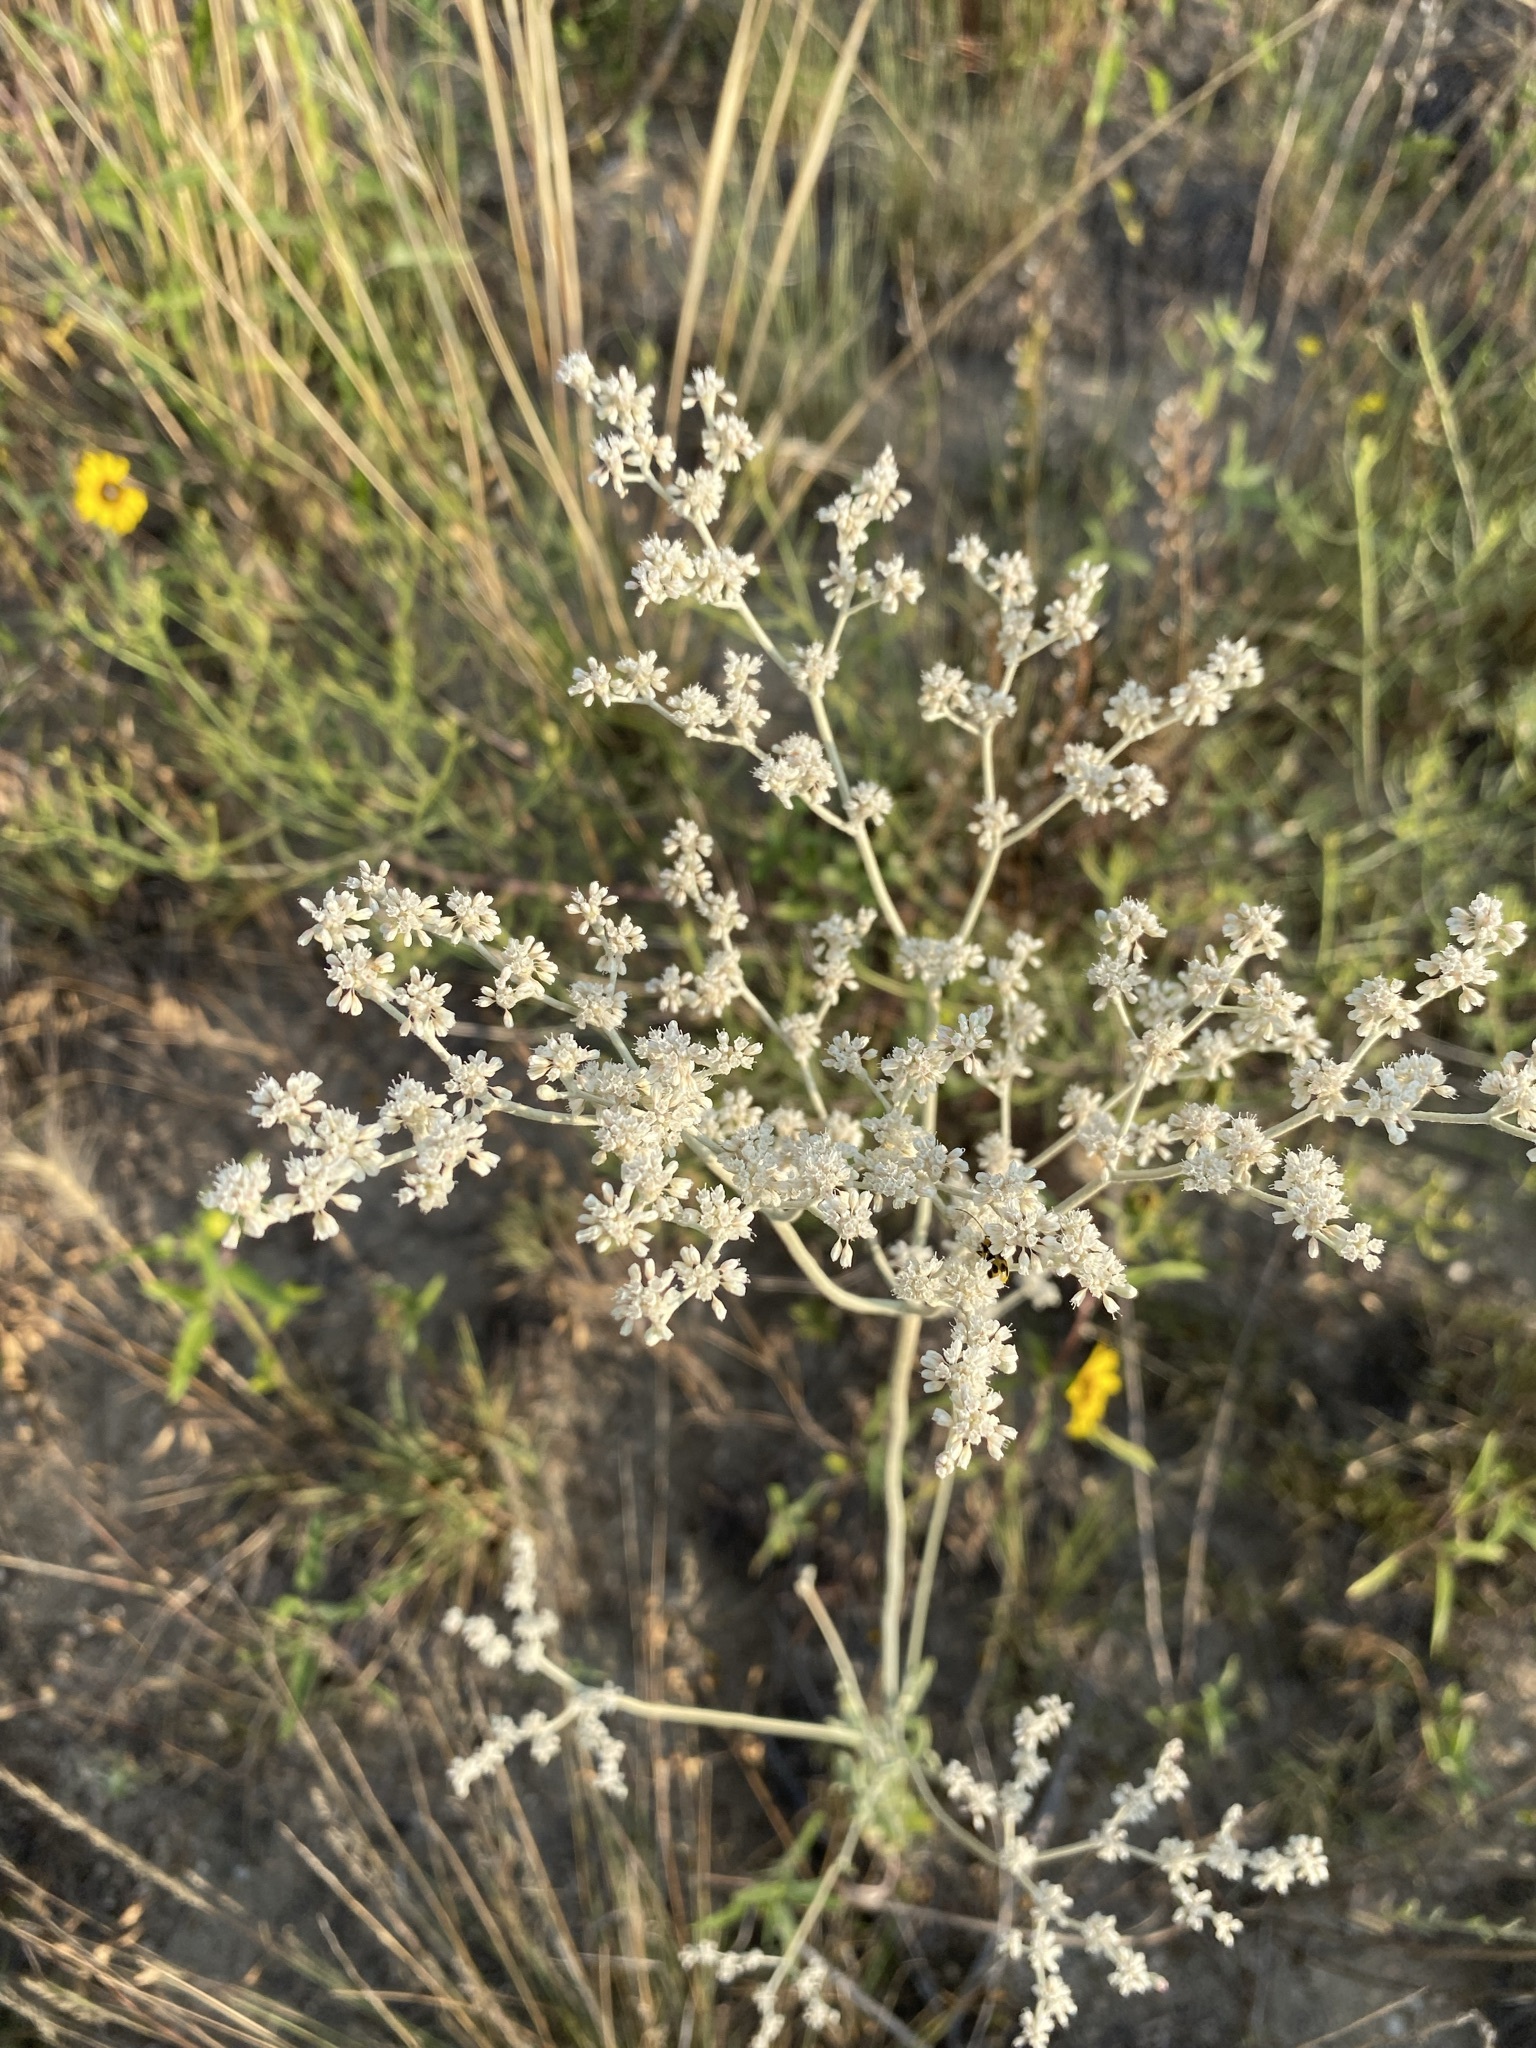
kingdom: Plantae
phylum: Tracheophyta
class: Magnoliopsida
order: Caryophyllales
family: Polygonaceae
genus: Eriogonum
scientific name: Eriogonum annuum
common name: Annual wild buckwheat
